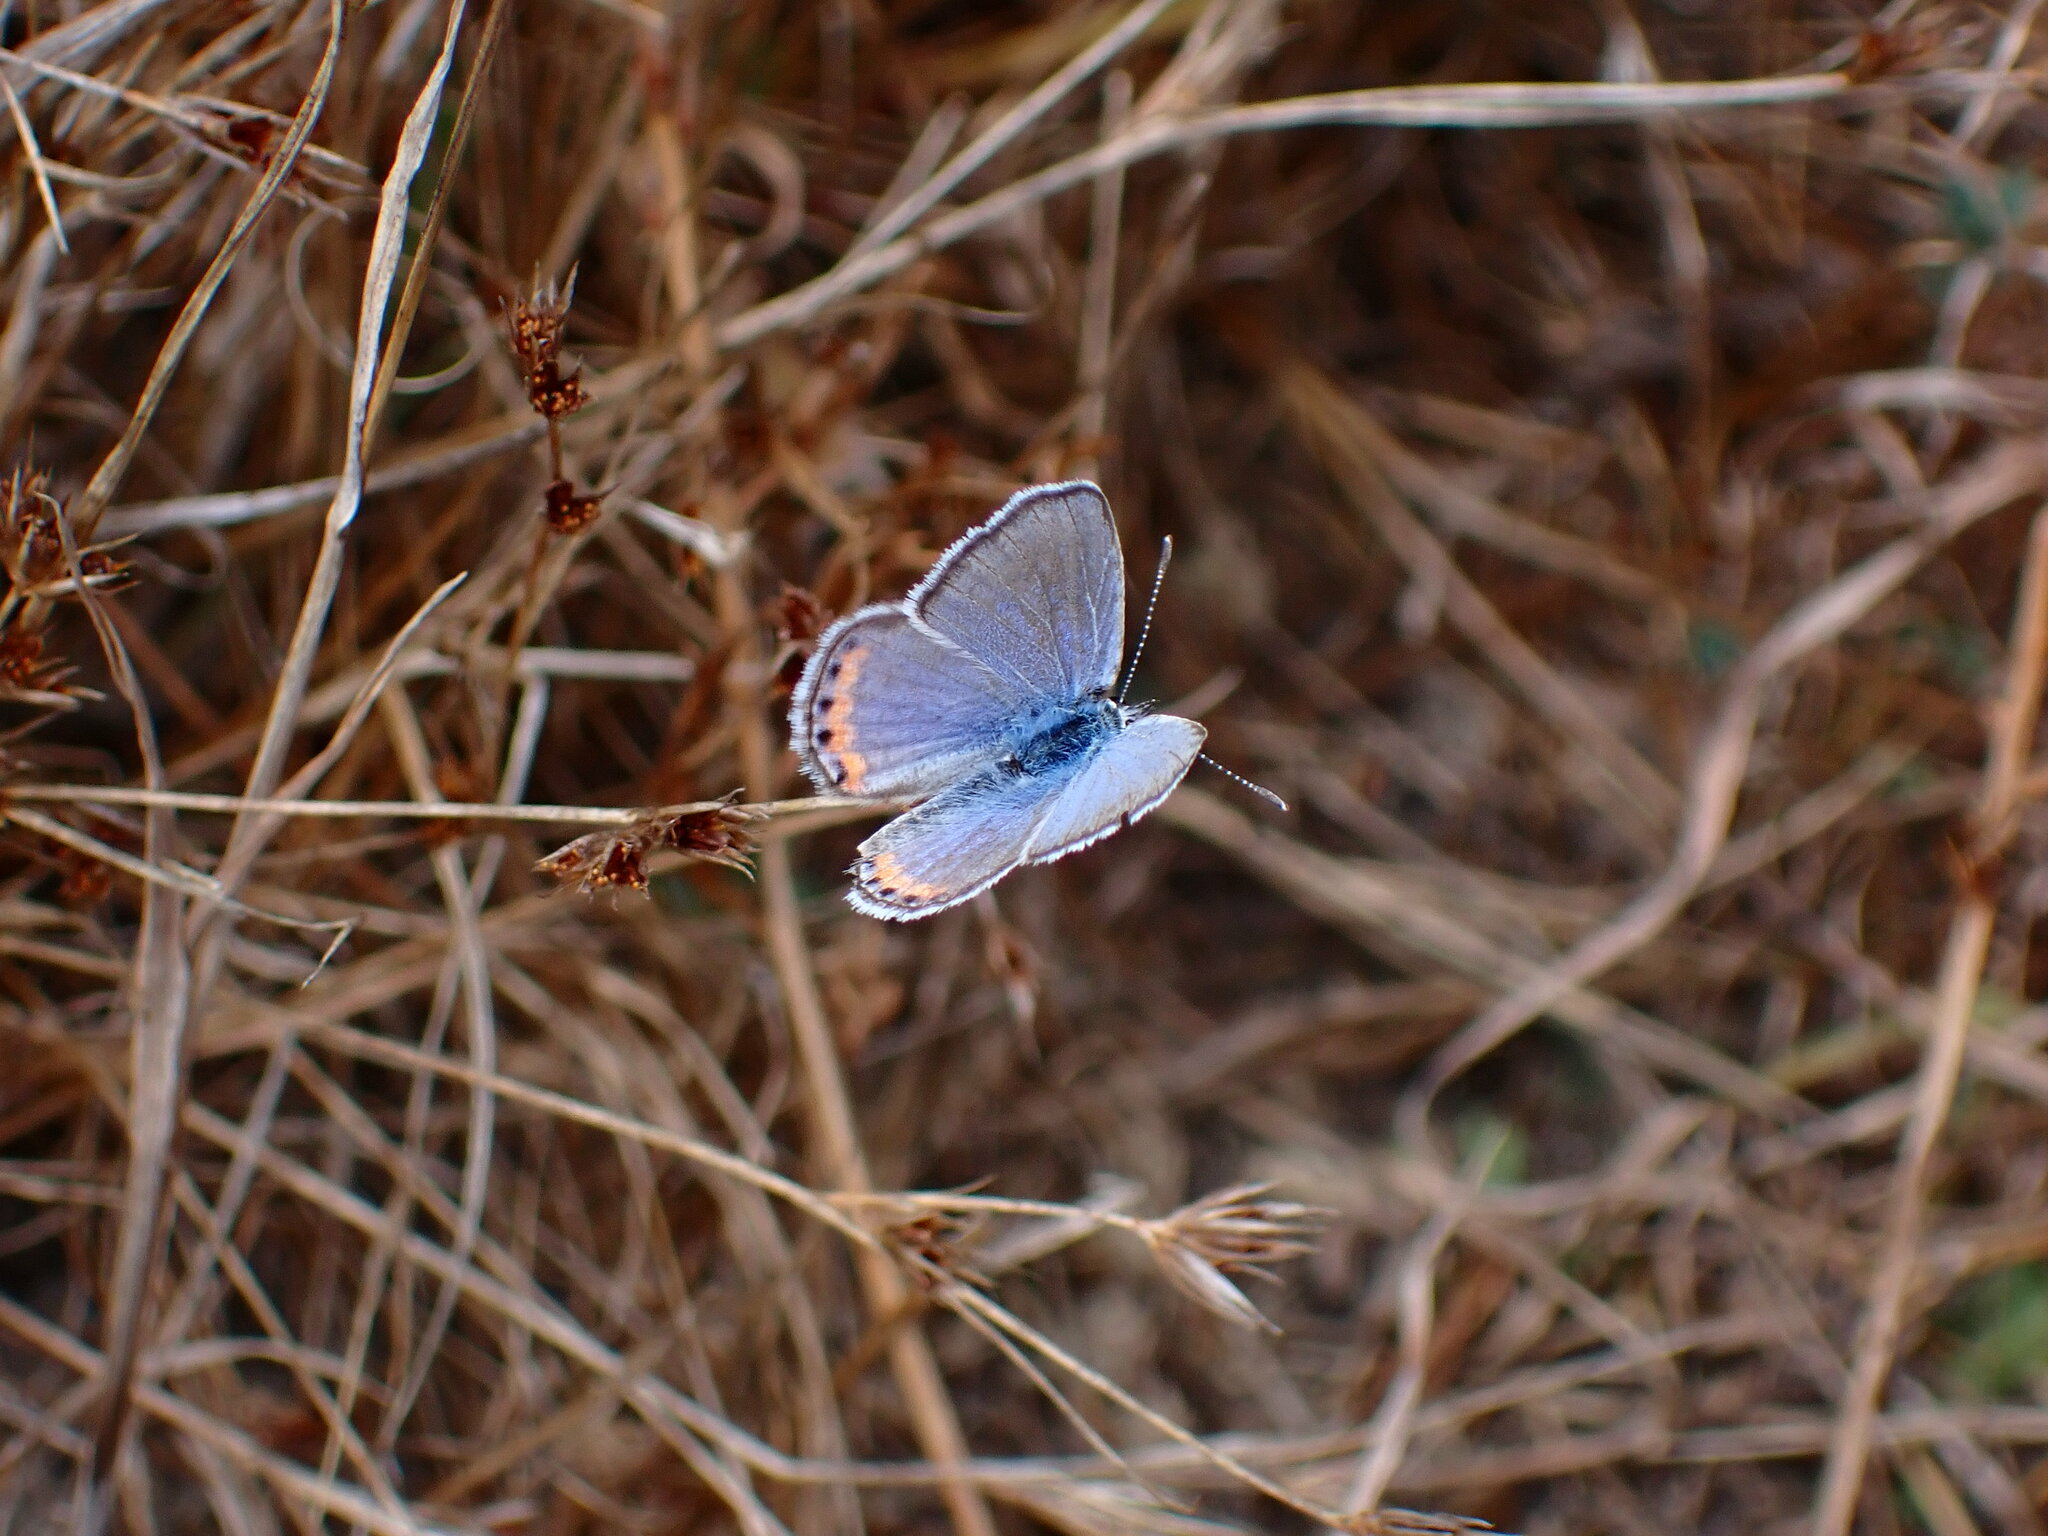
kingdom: Animalia
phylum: Arthropoda
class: Insecta
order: Lepidoptera
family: Lycaenidae
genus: Icaricia
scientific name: Icaricia acmon
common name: Acmon blue
